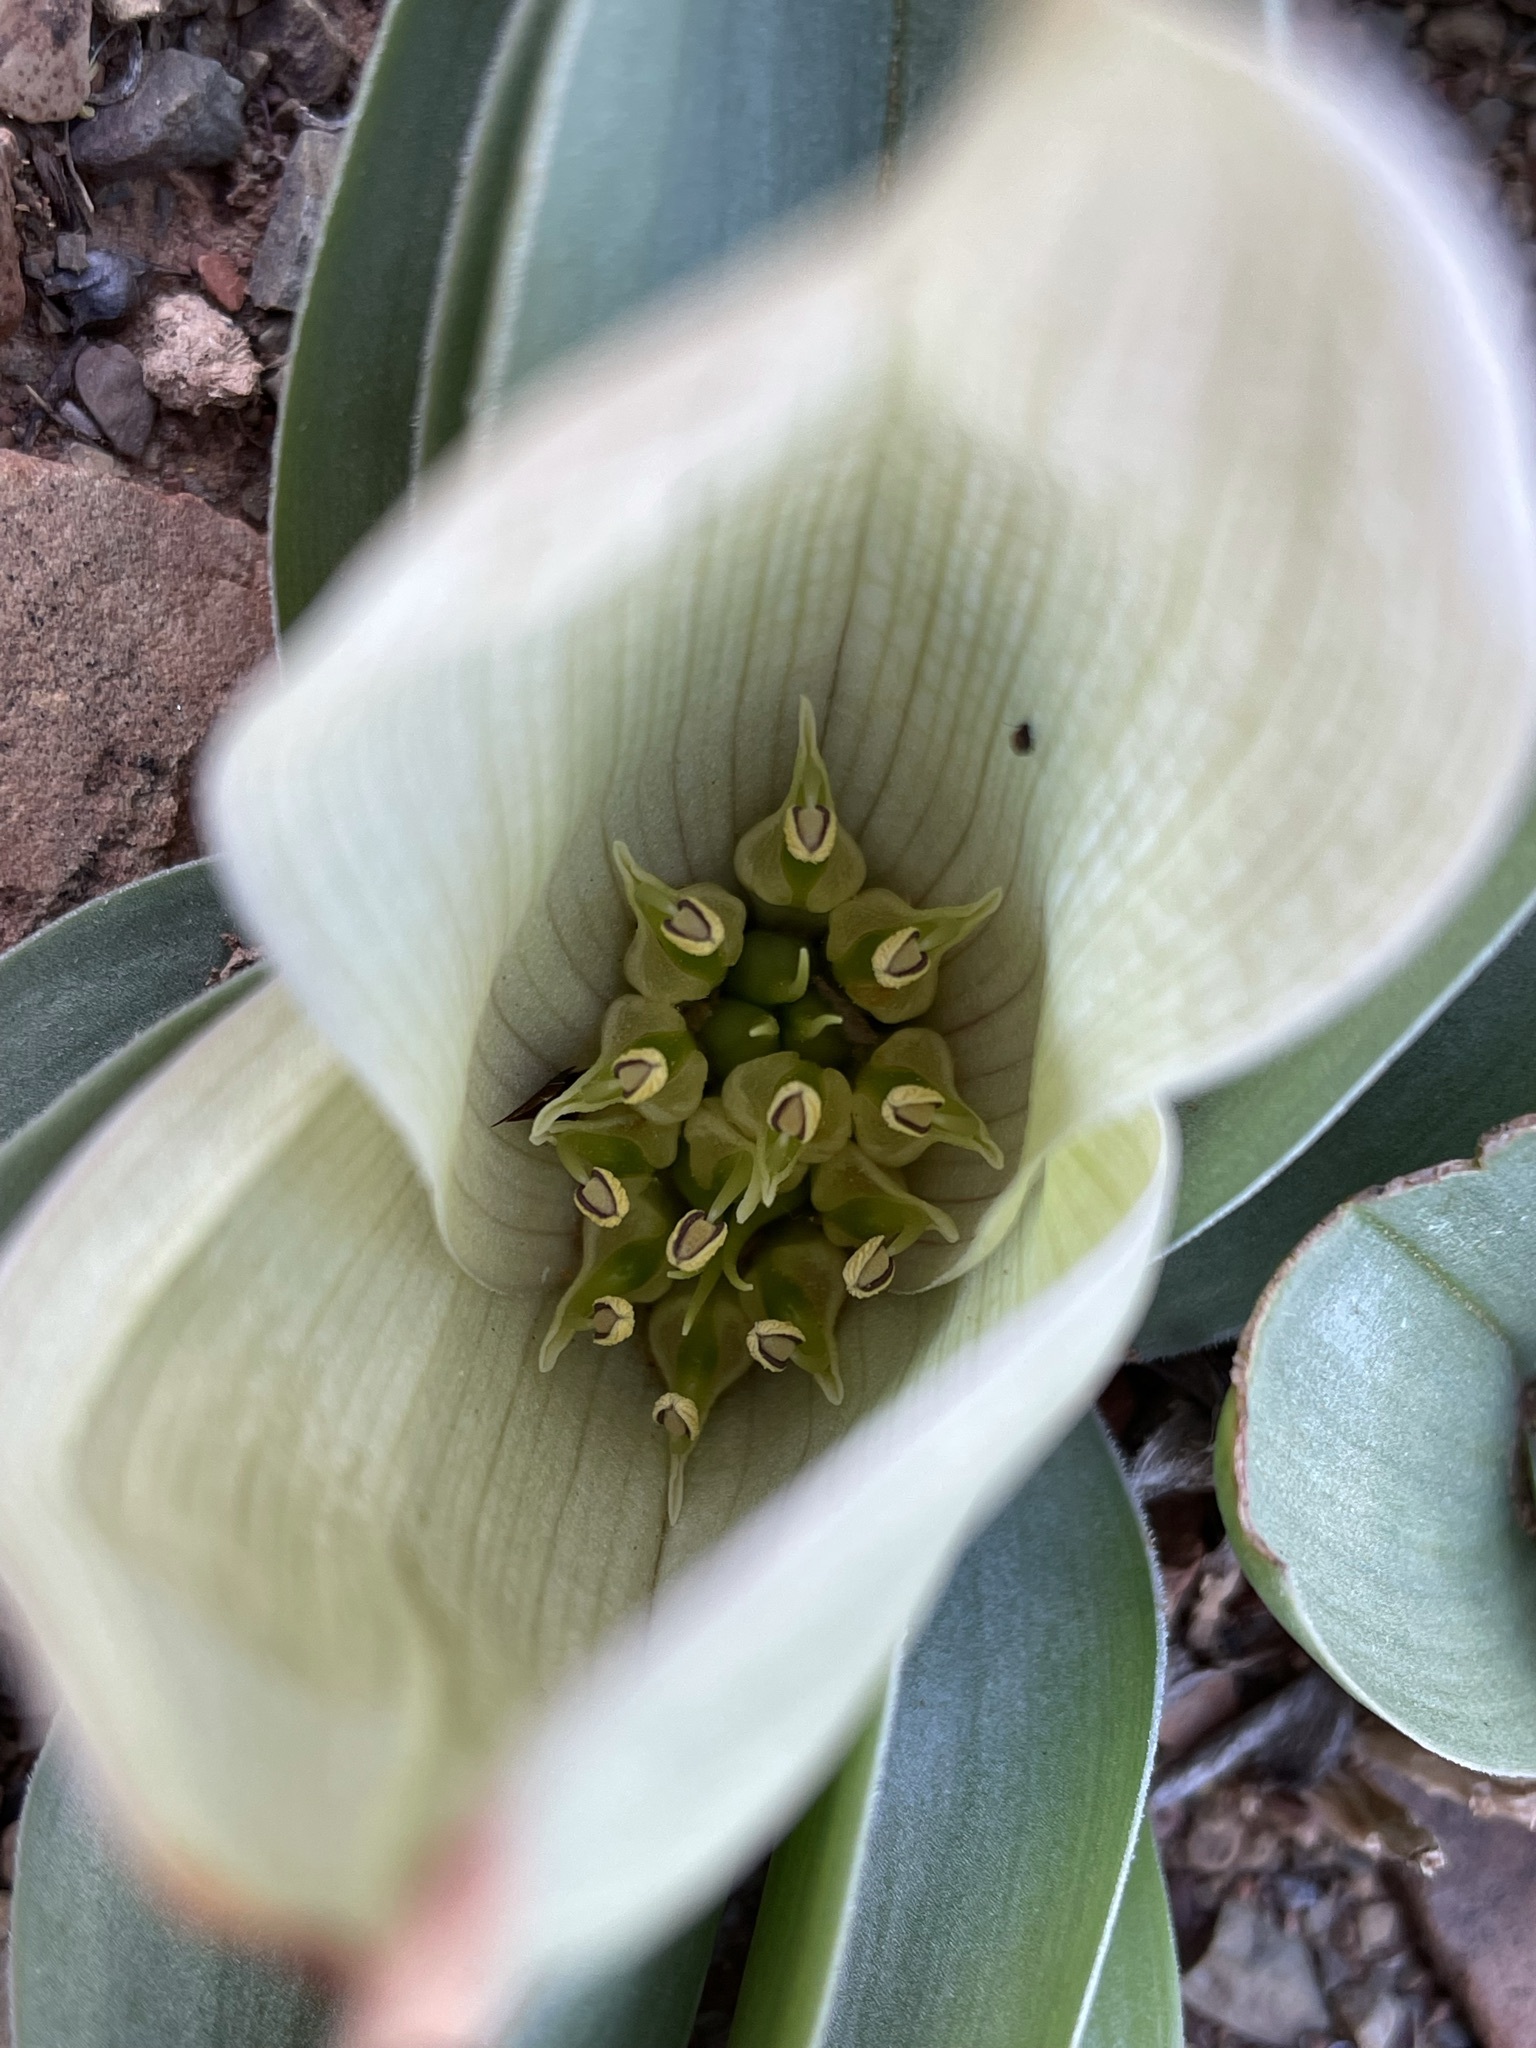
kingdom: Plantae
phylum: Tracheophyta
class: Liliopsida
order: Liliales
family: Colchicaceae
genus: Colchicum
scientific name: Colchicum capense
